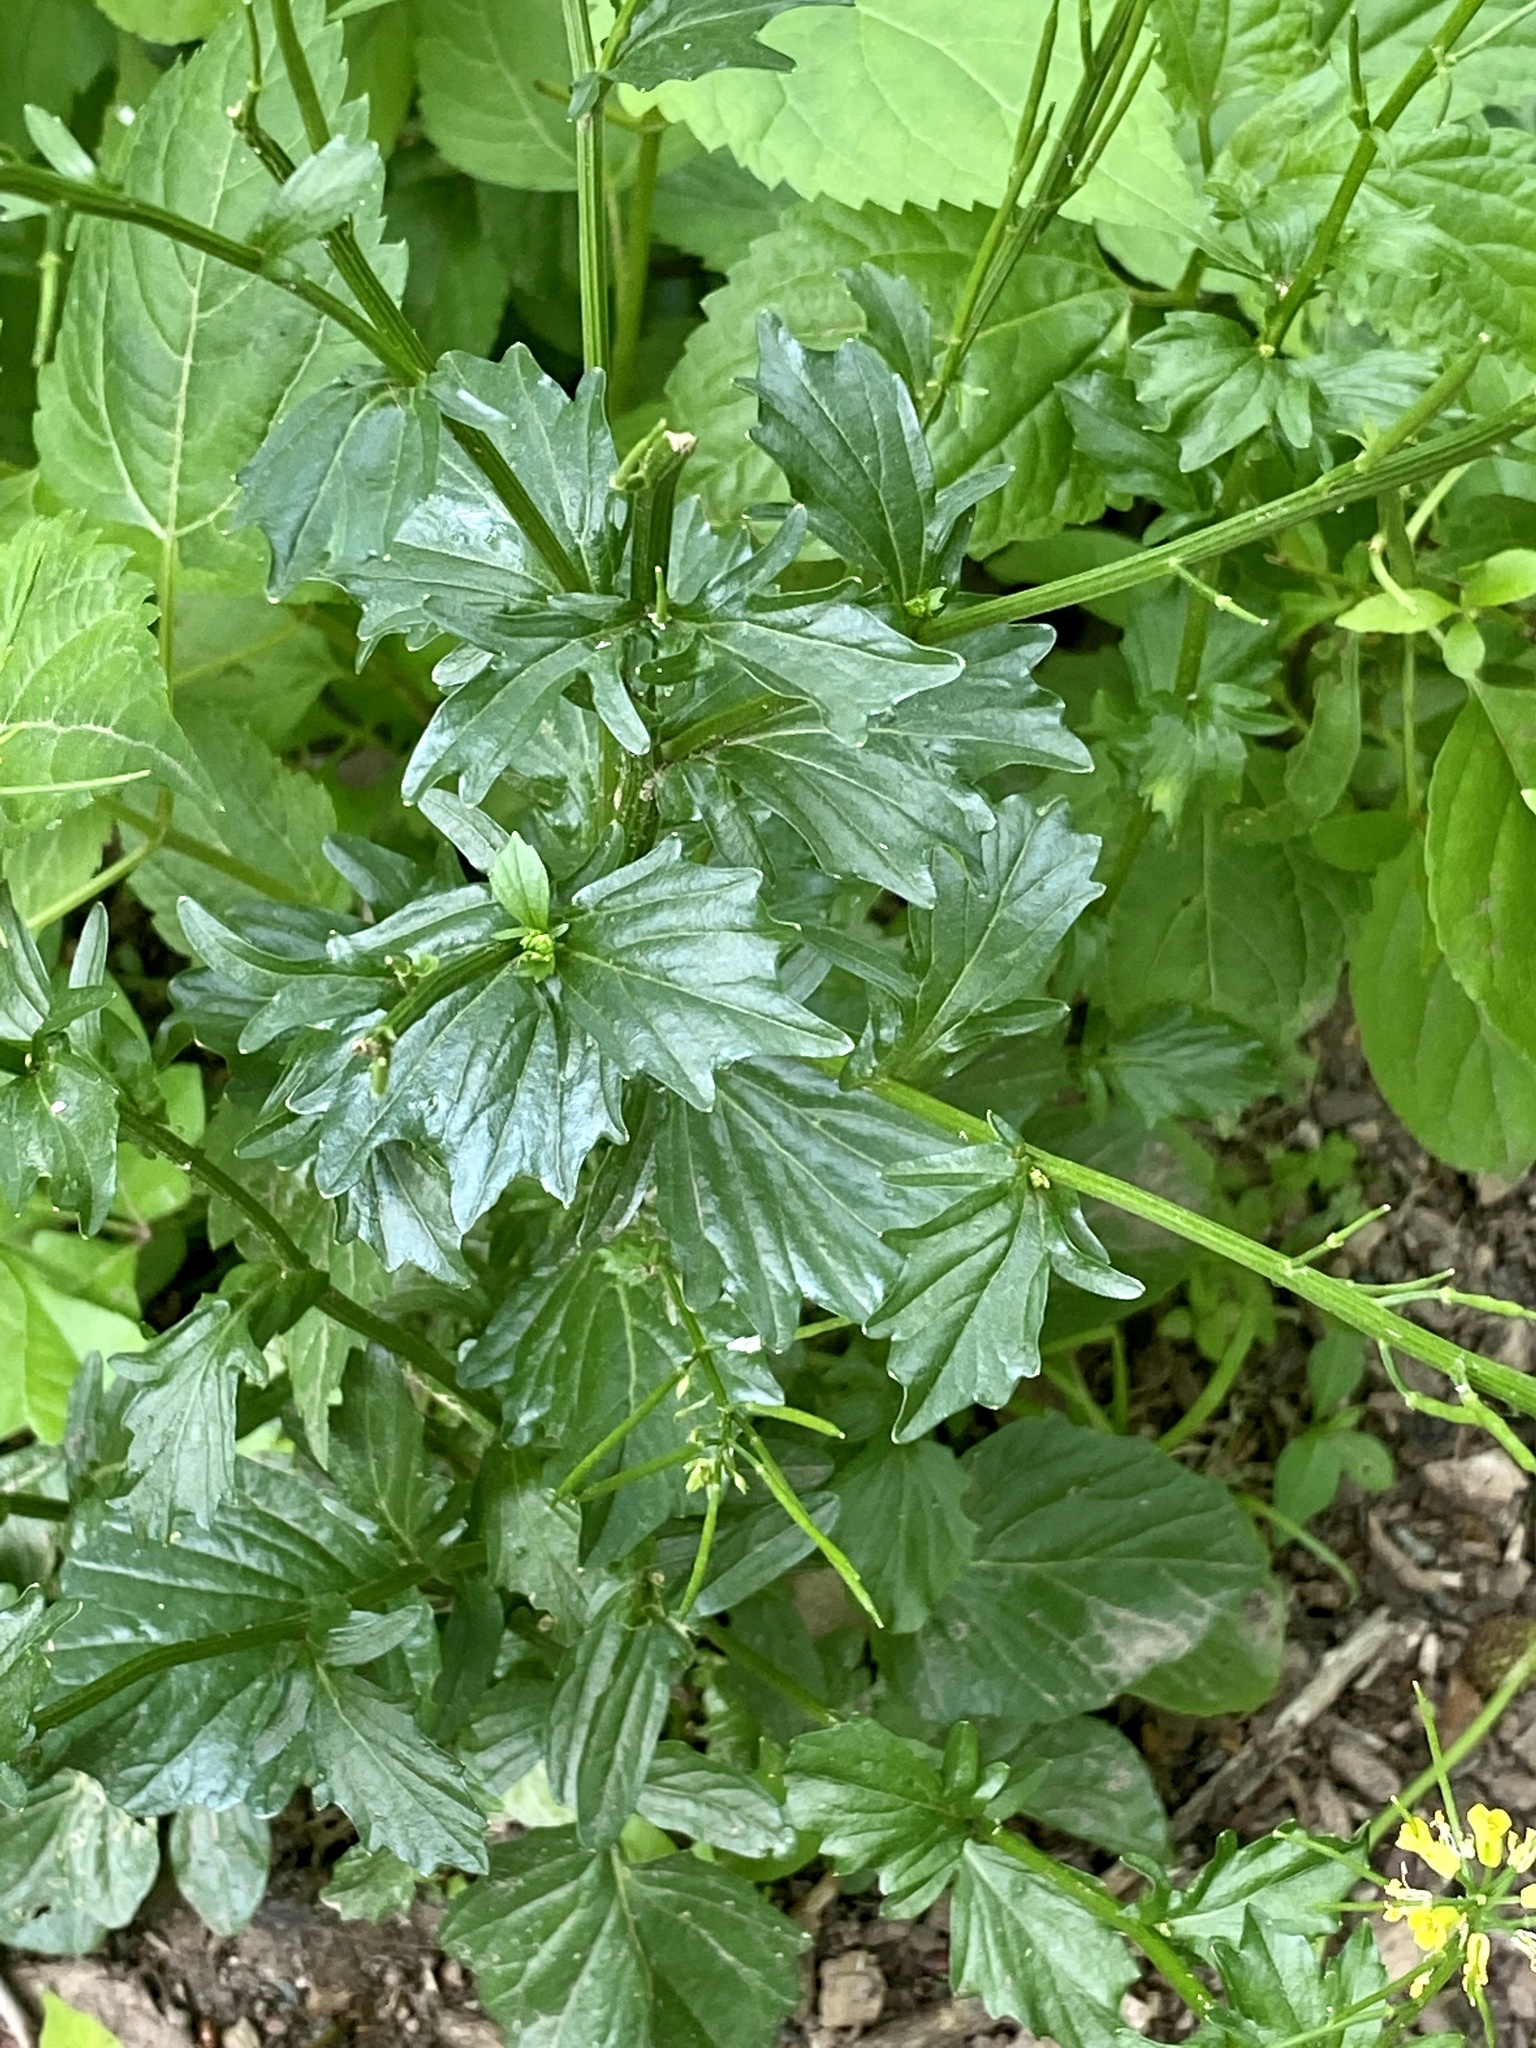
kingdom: Plantae
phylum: Tracheophyta
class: Magnoliopsida
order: Brassicales
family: Brassicaceae
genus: Barbarea
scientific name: Barbarea vulgaris
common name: Cressy-greens
